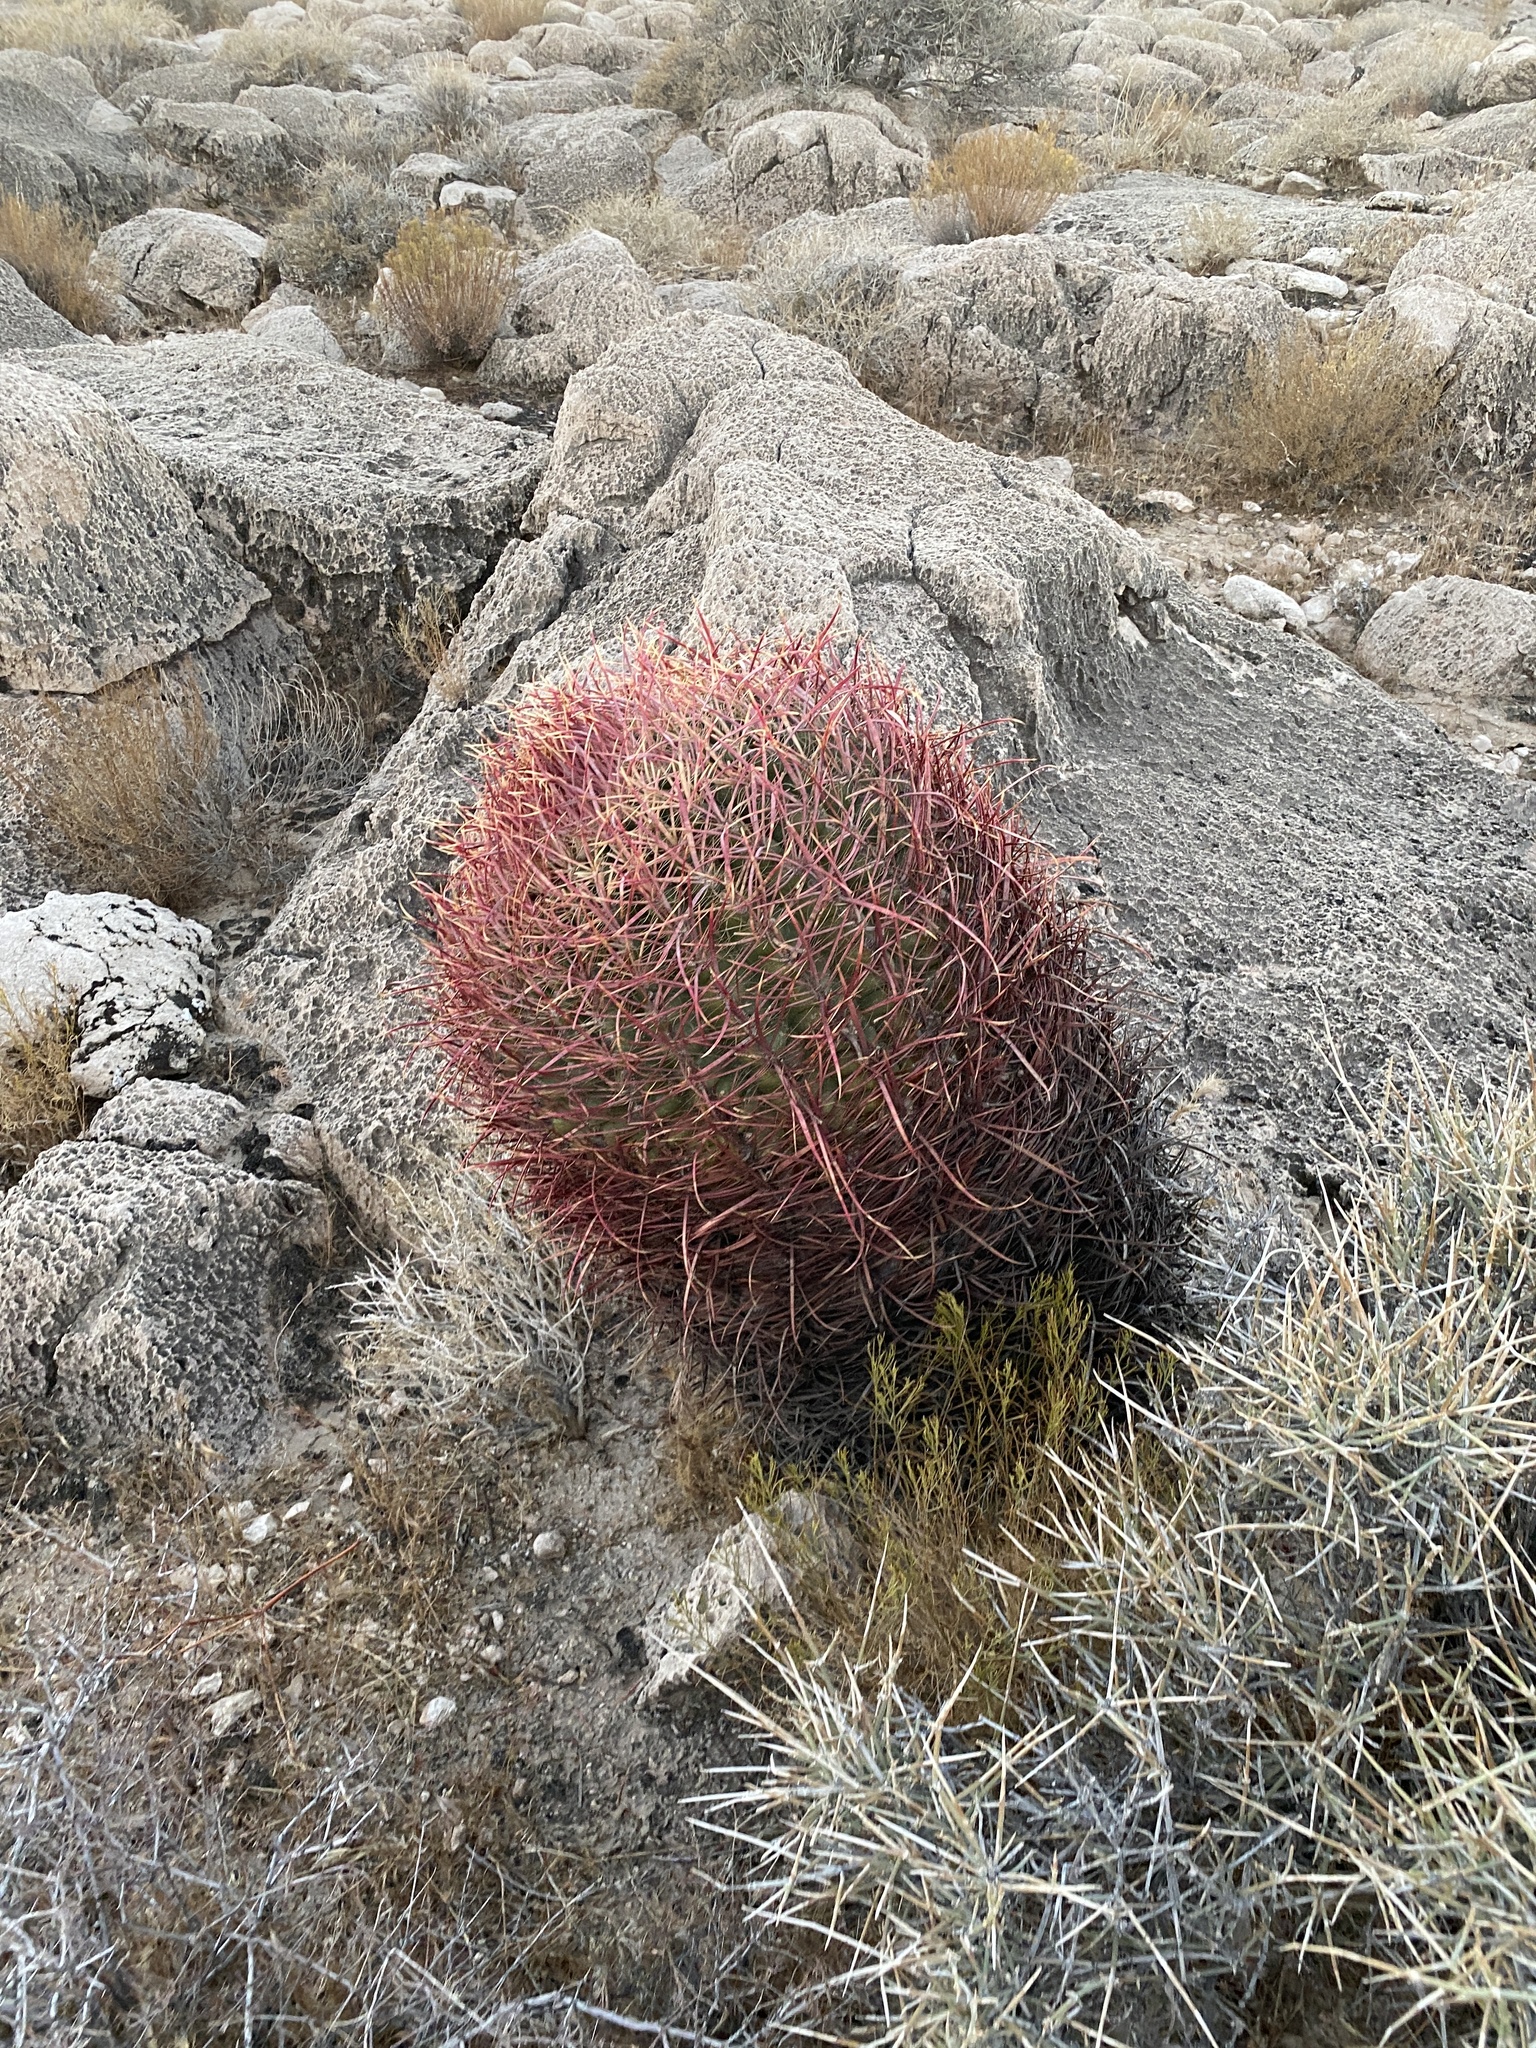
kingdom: Plantae
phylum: Tracheophyta
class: Magnoliopsida
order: Caryophyllales
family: Cactaceae
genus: Ferocactus
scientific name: Ferocactus cylindraceus
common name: California barrel cactus
